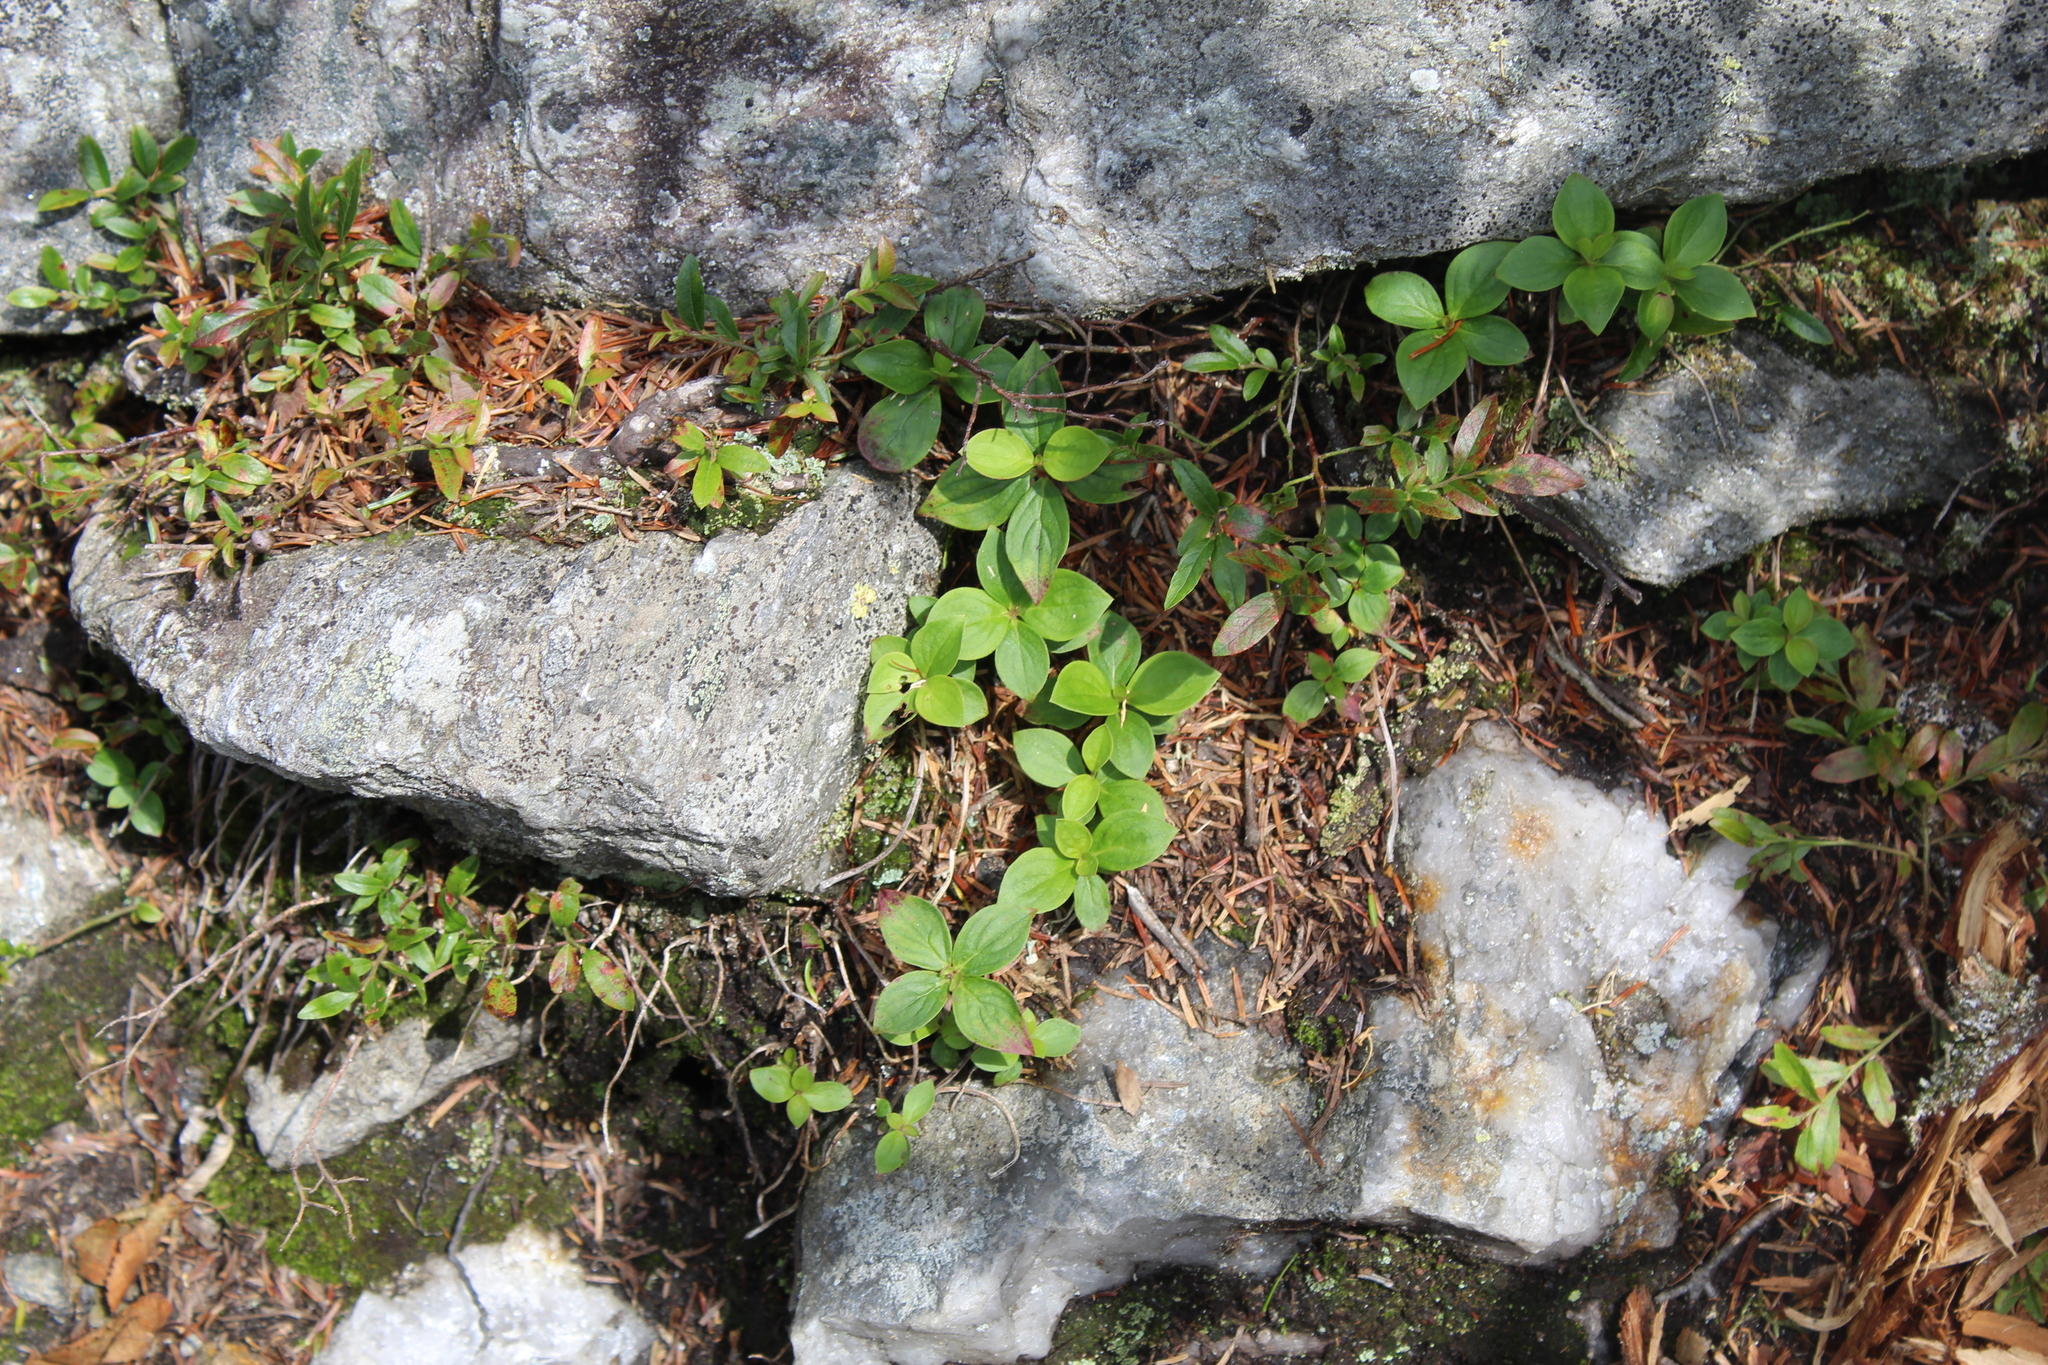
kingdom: Plantae
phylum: Tracheophyta
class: Magnoliopsida
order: Cornales
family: Cornaceae
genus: Cornus
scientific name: Cornus canadensis
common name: Creeping dogwood
